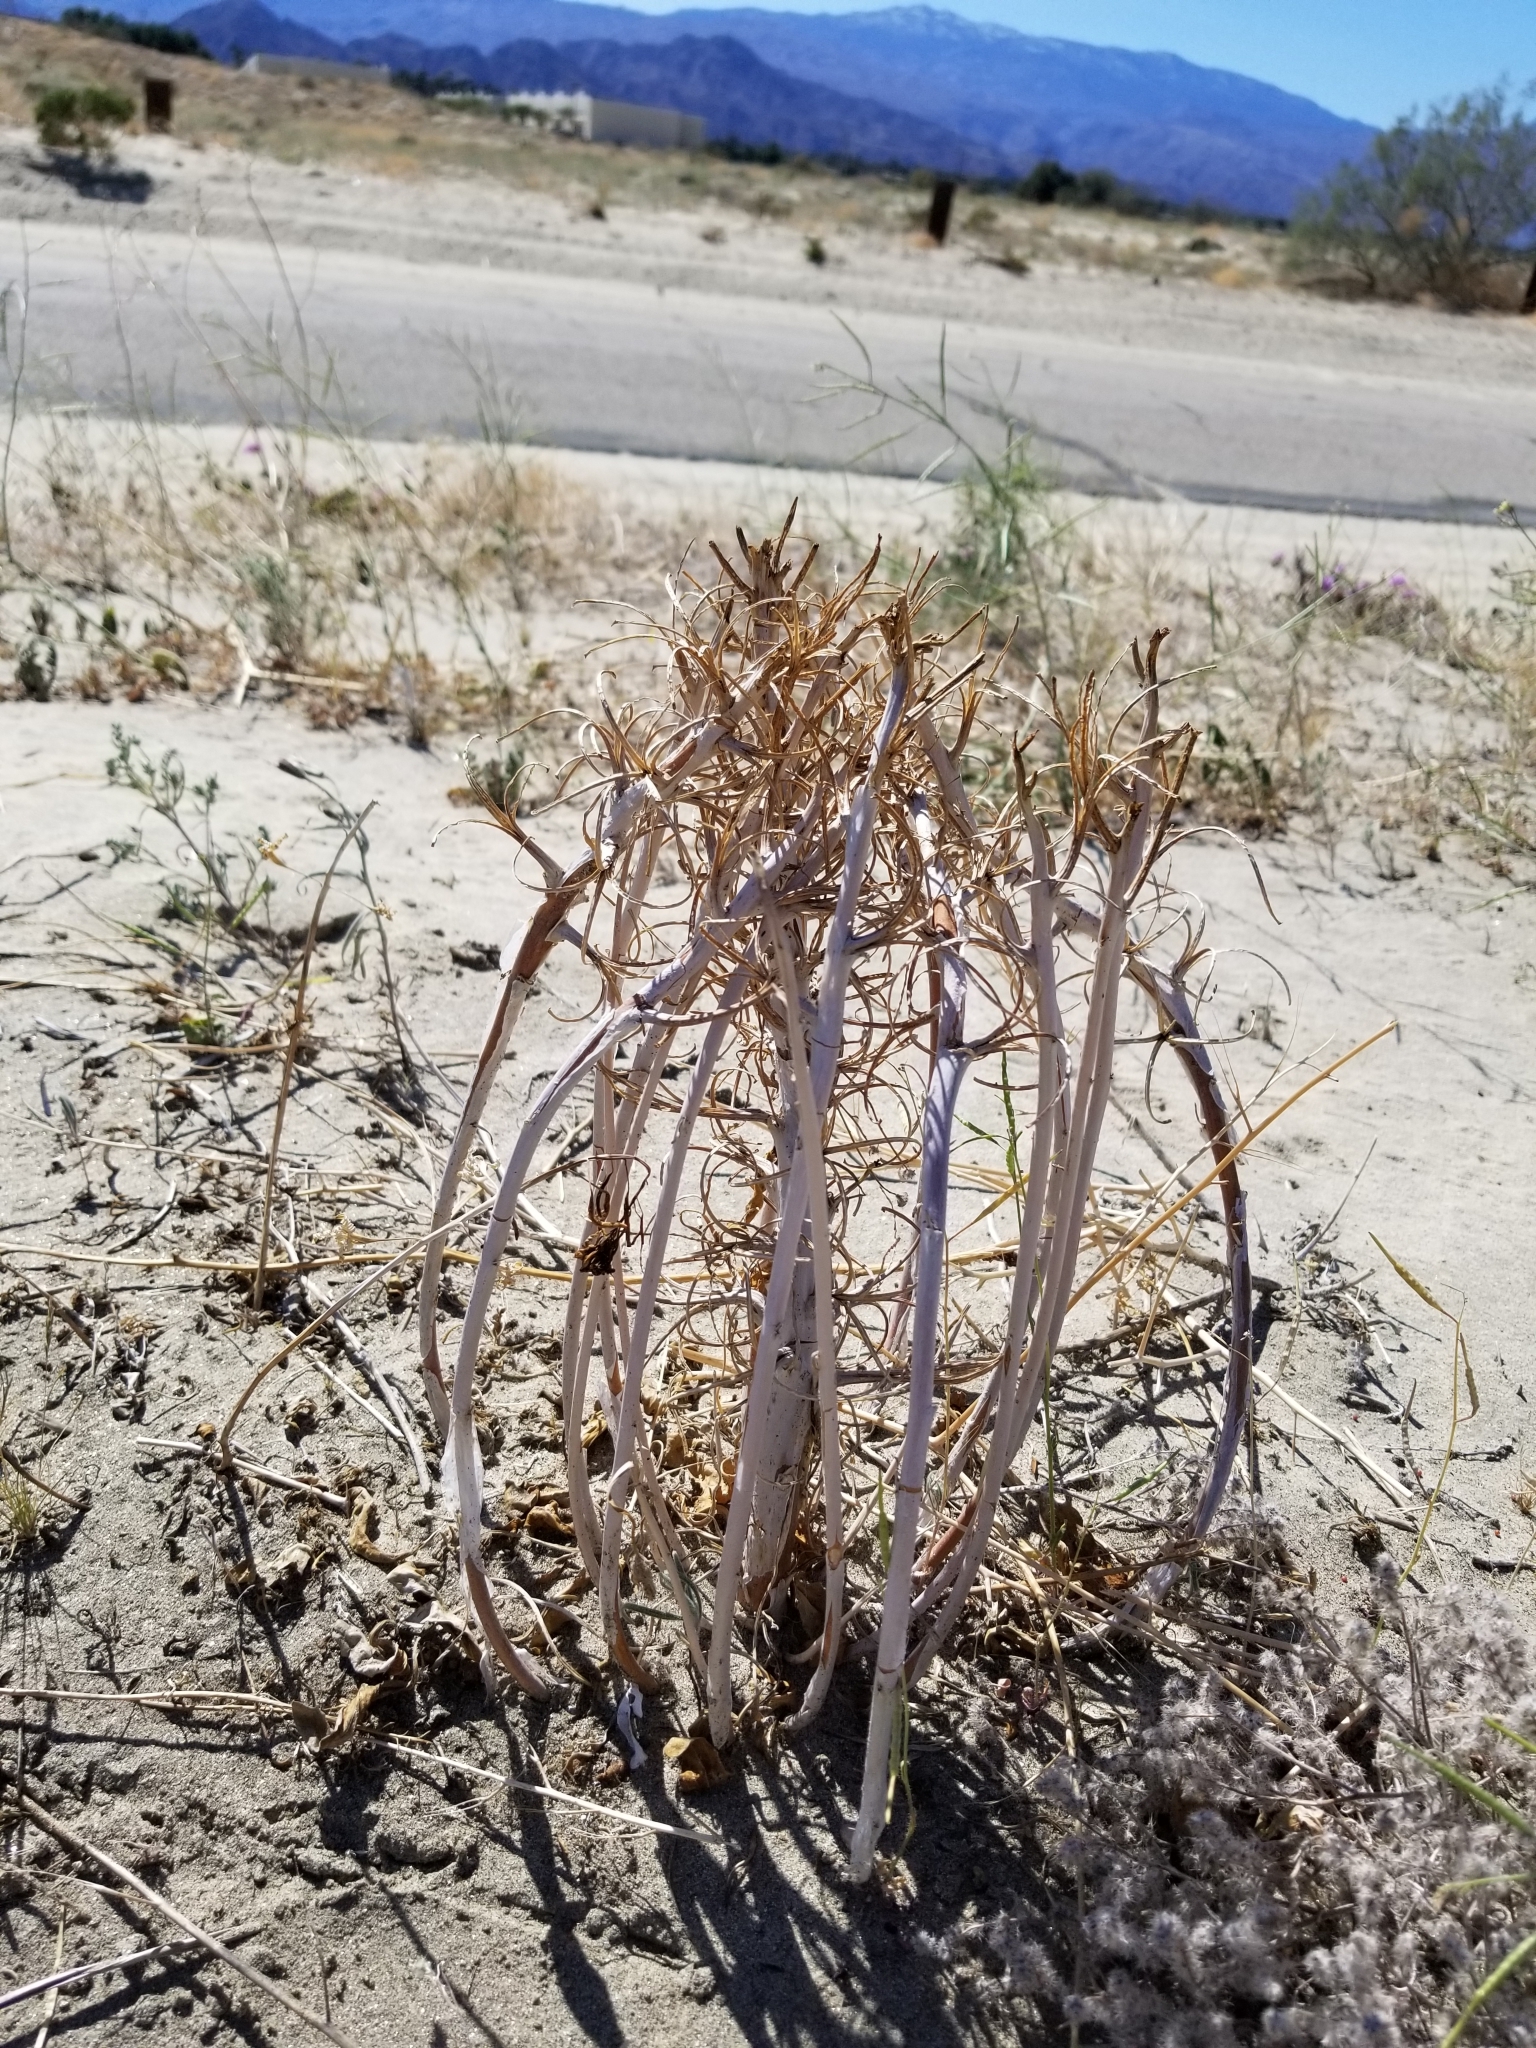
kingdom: Plantae
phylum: Tracheophyta
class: Magnoliopsida
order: Myrtales
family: Onagraceae
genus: Oenothera
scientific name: Oenothera deltoides
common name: Basket evening-primrose
